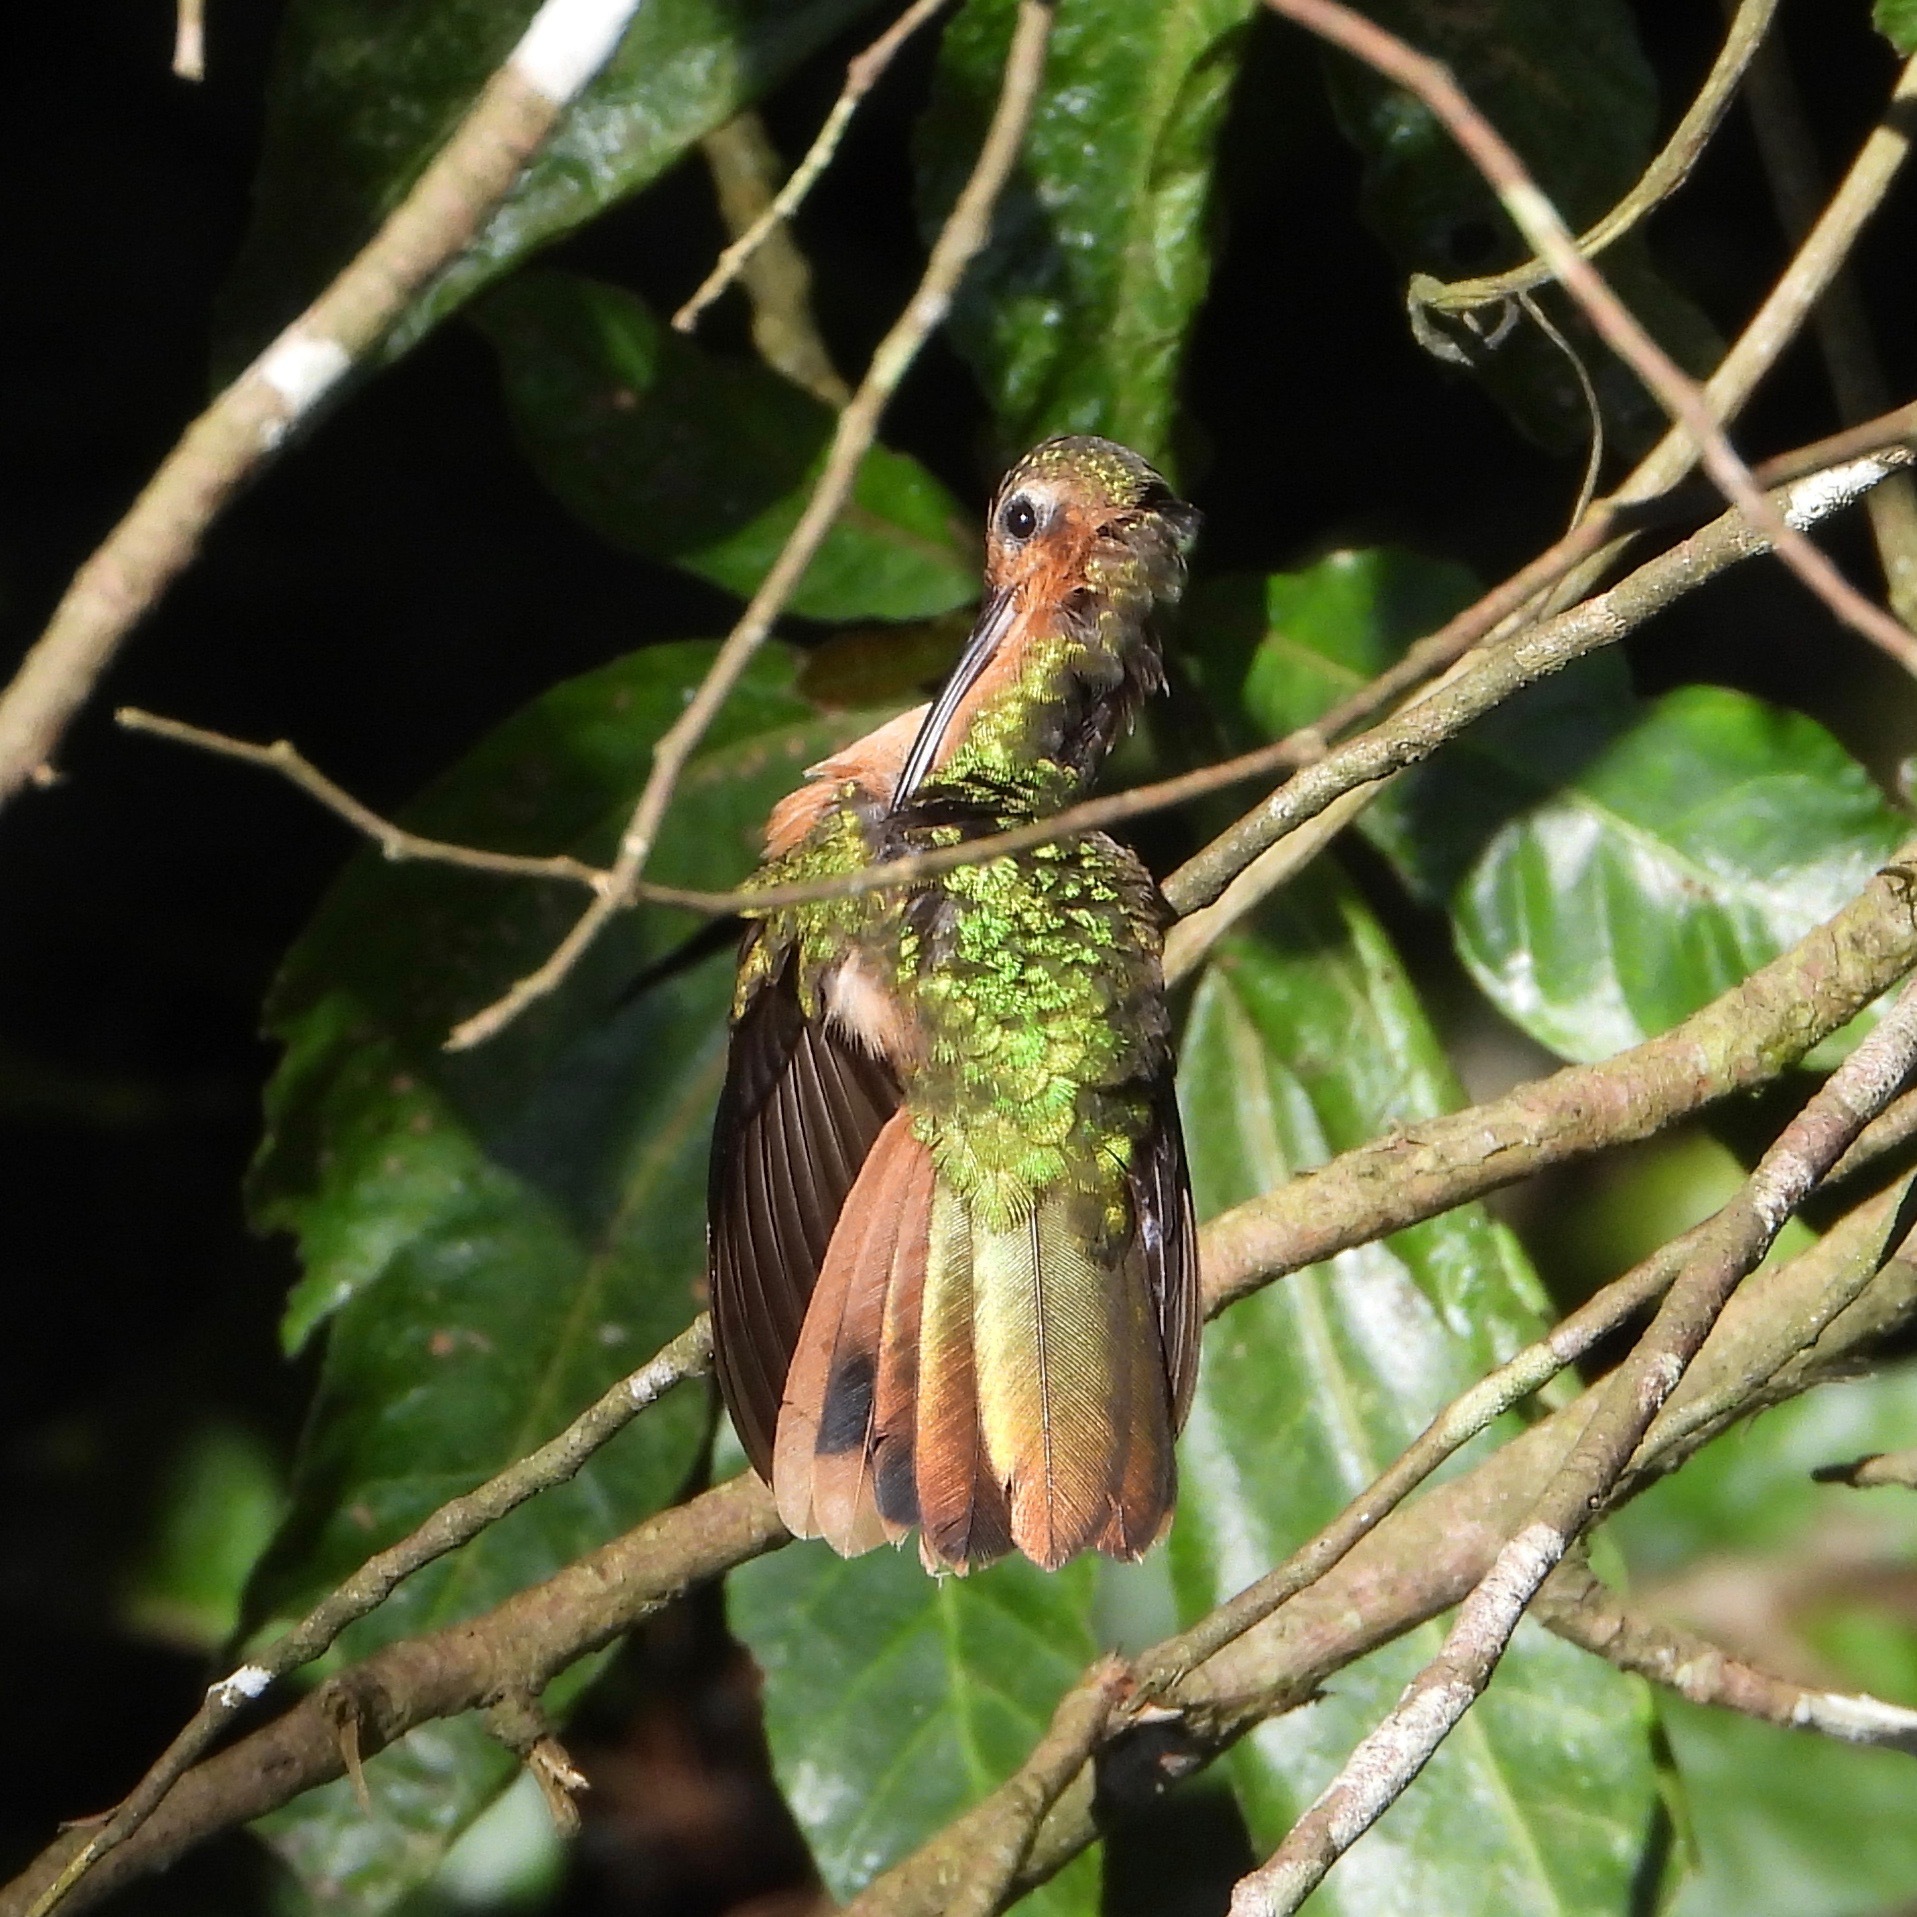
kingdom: Animalia
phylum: Chordata
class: Aves
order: Apodiformes
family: Trochilidae
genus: Pampa
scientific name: Pampa rufa
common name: Rufous sabrewing
